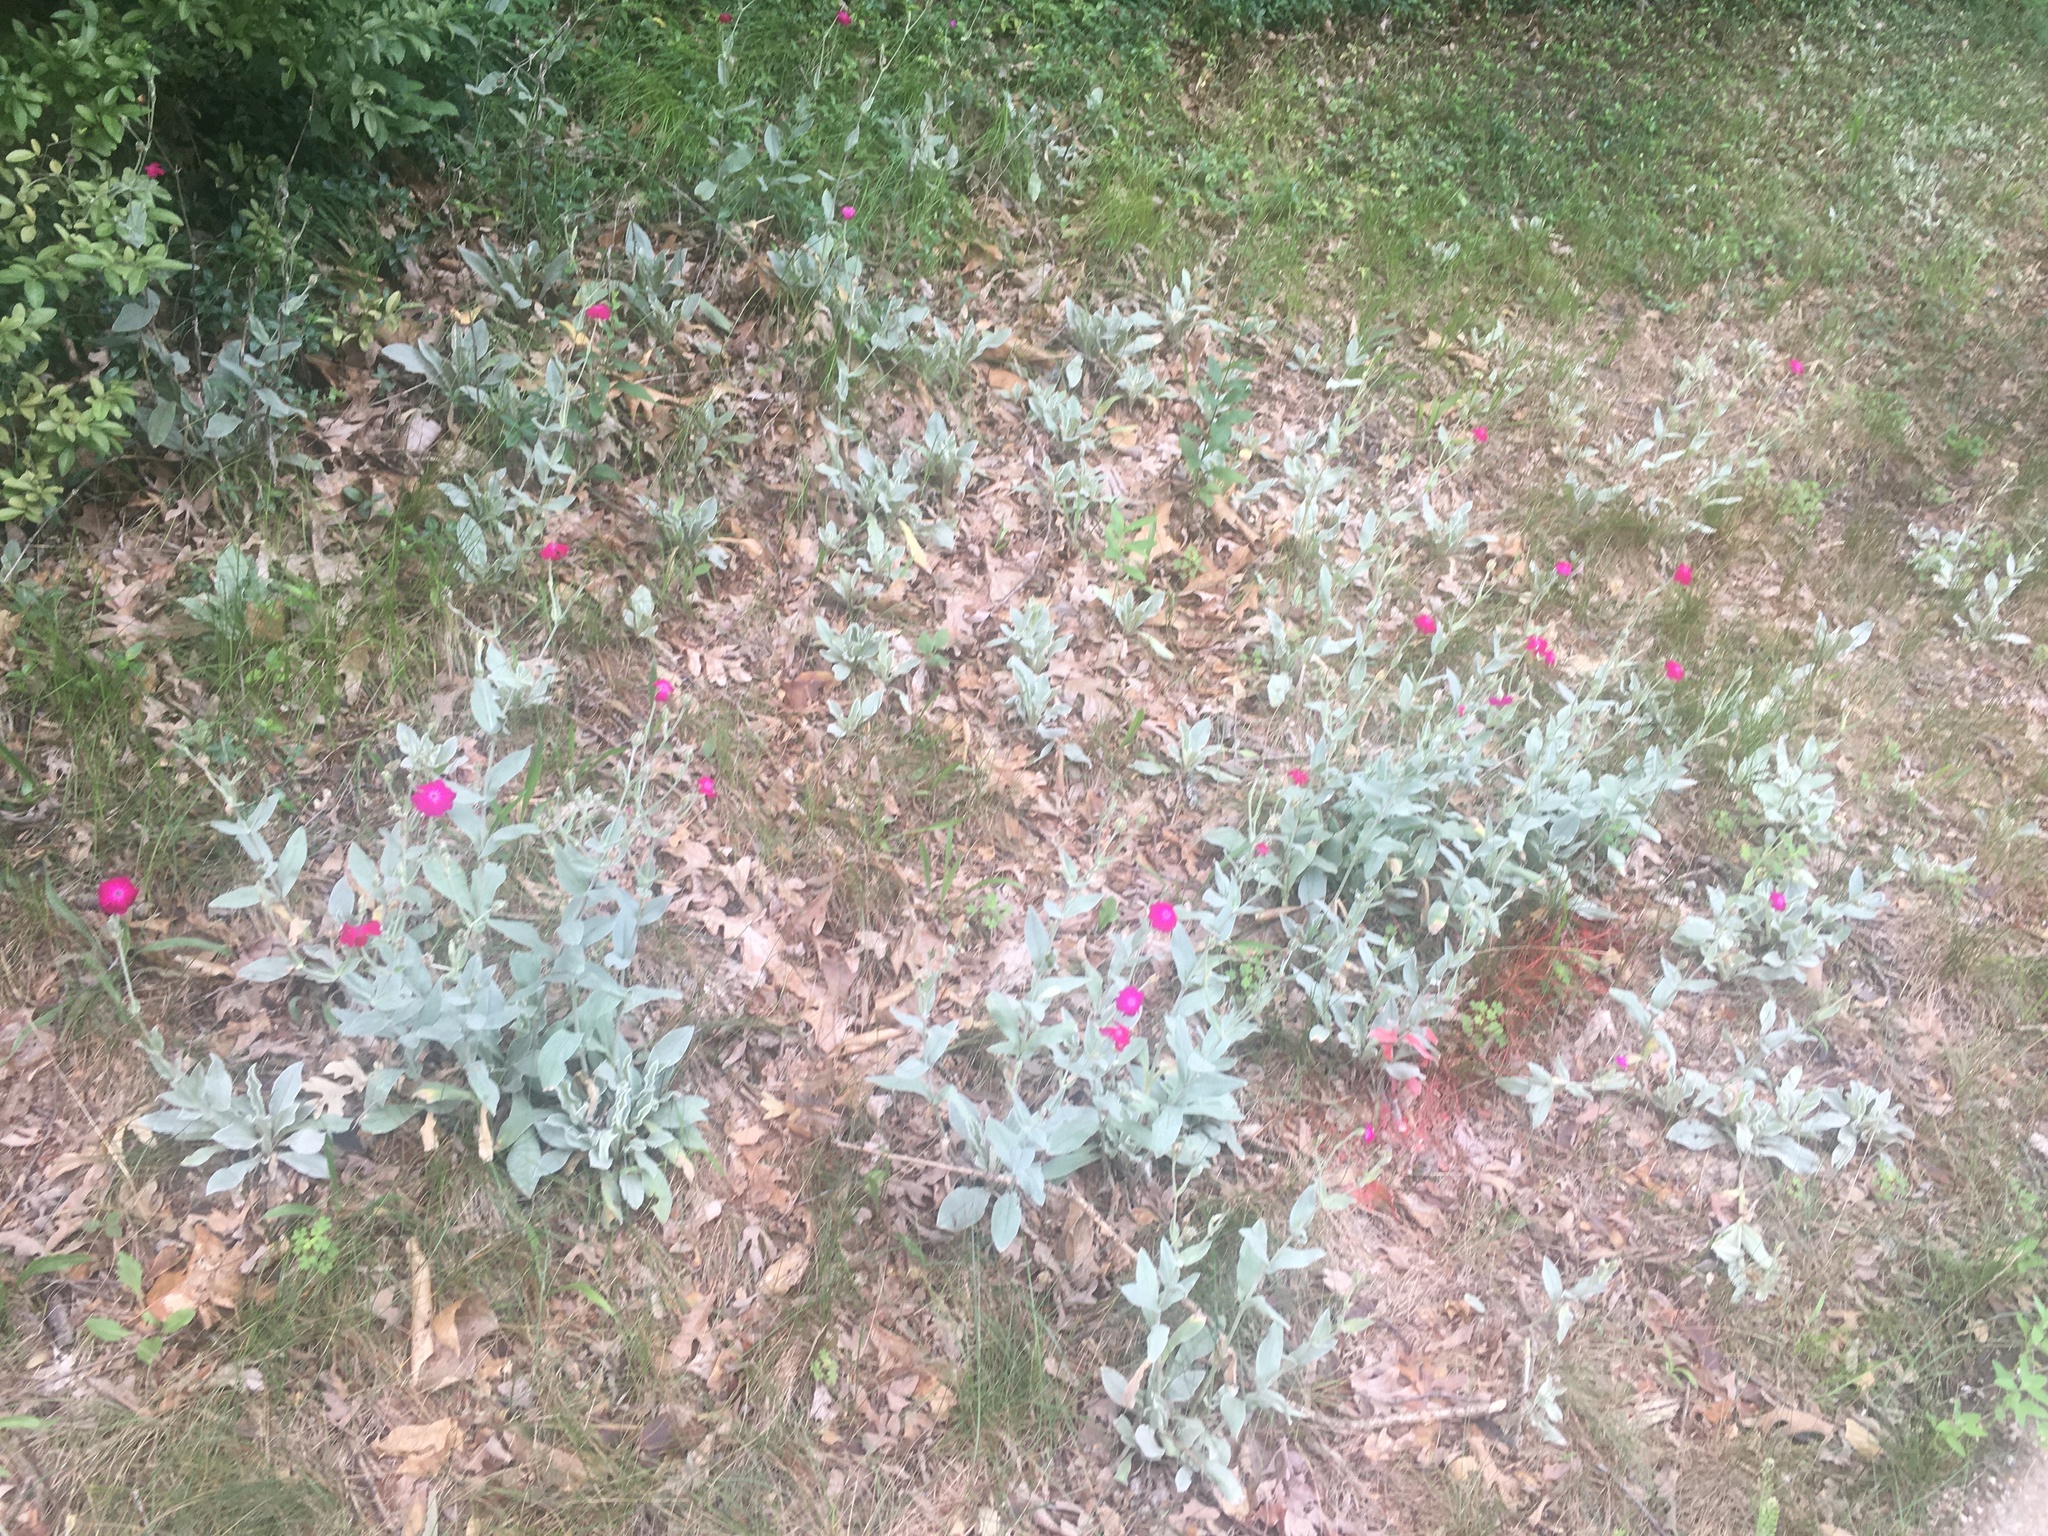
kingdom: Plantae
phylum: Tracheophyta
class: Magnoliopsida
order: Caryophyllales
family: Caryophyllaceae
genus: Silene
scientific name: Silene coronaria
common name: Rose campion
